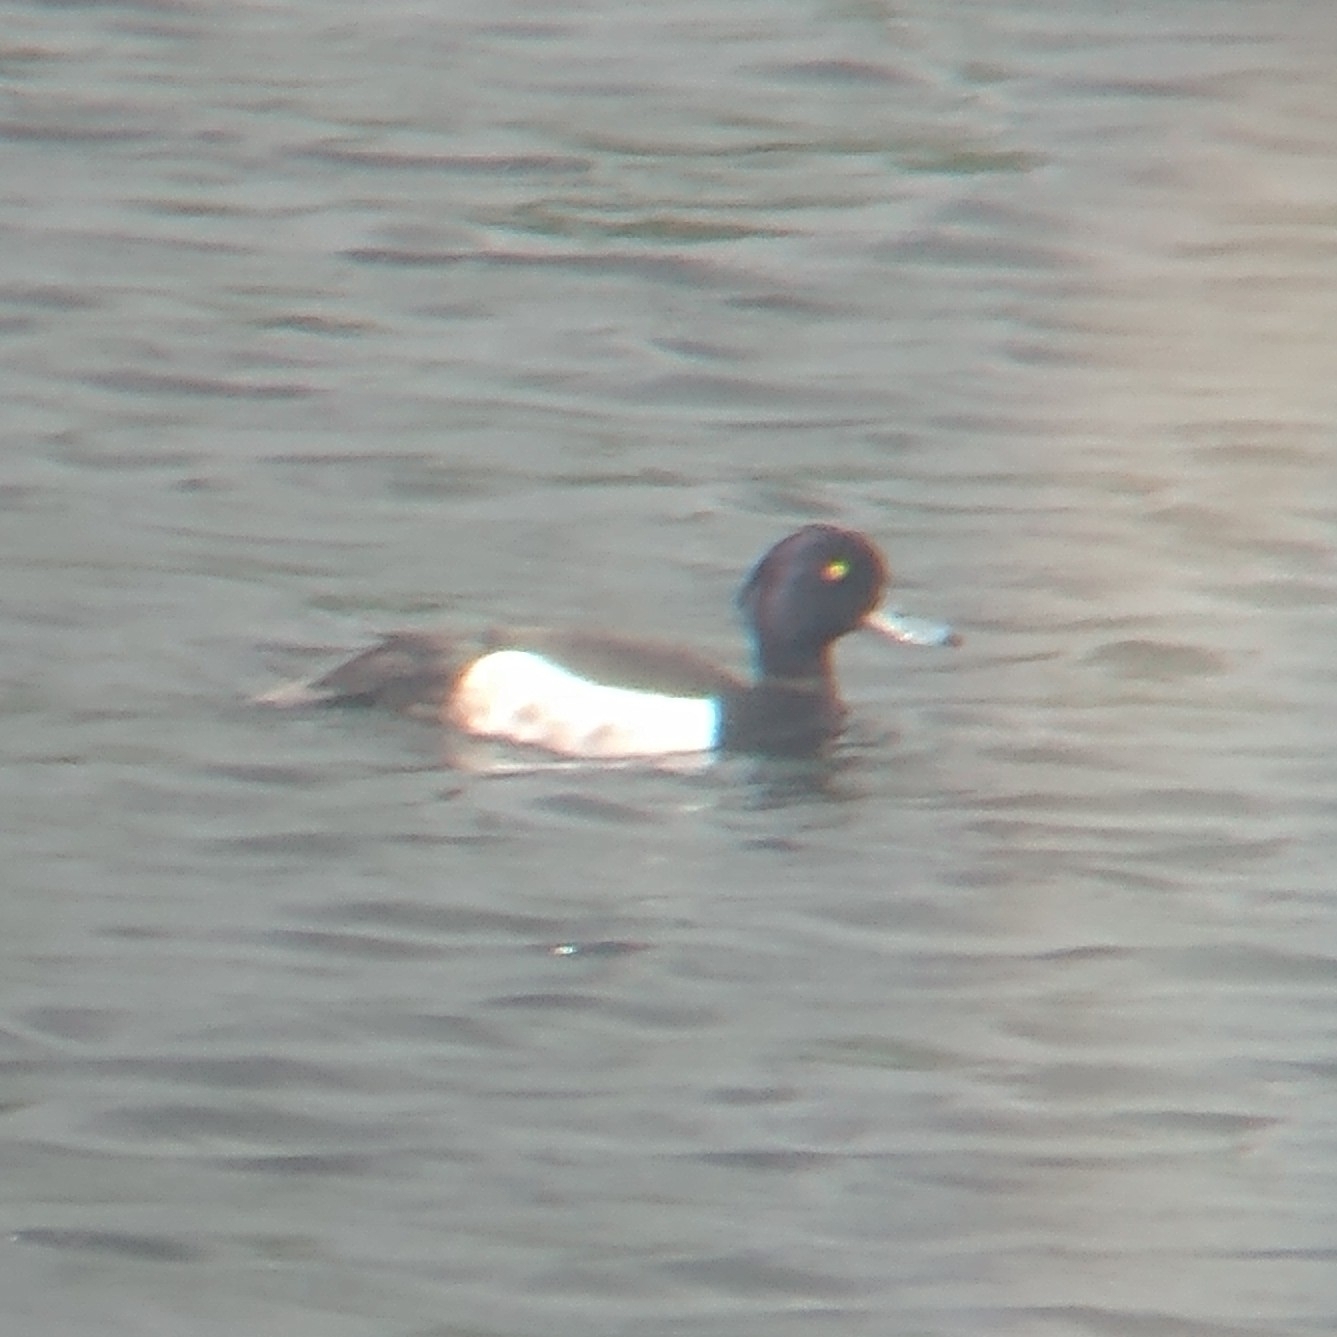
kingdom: Animalia
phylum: Chordata
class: Aves
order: Anseriformes
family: Anatidae
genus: Aythya
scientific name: Aythya fuligula
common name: Tufted duck
